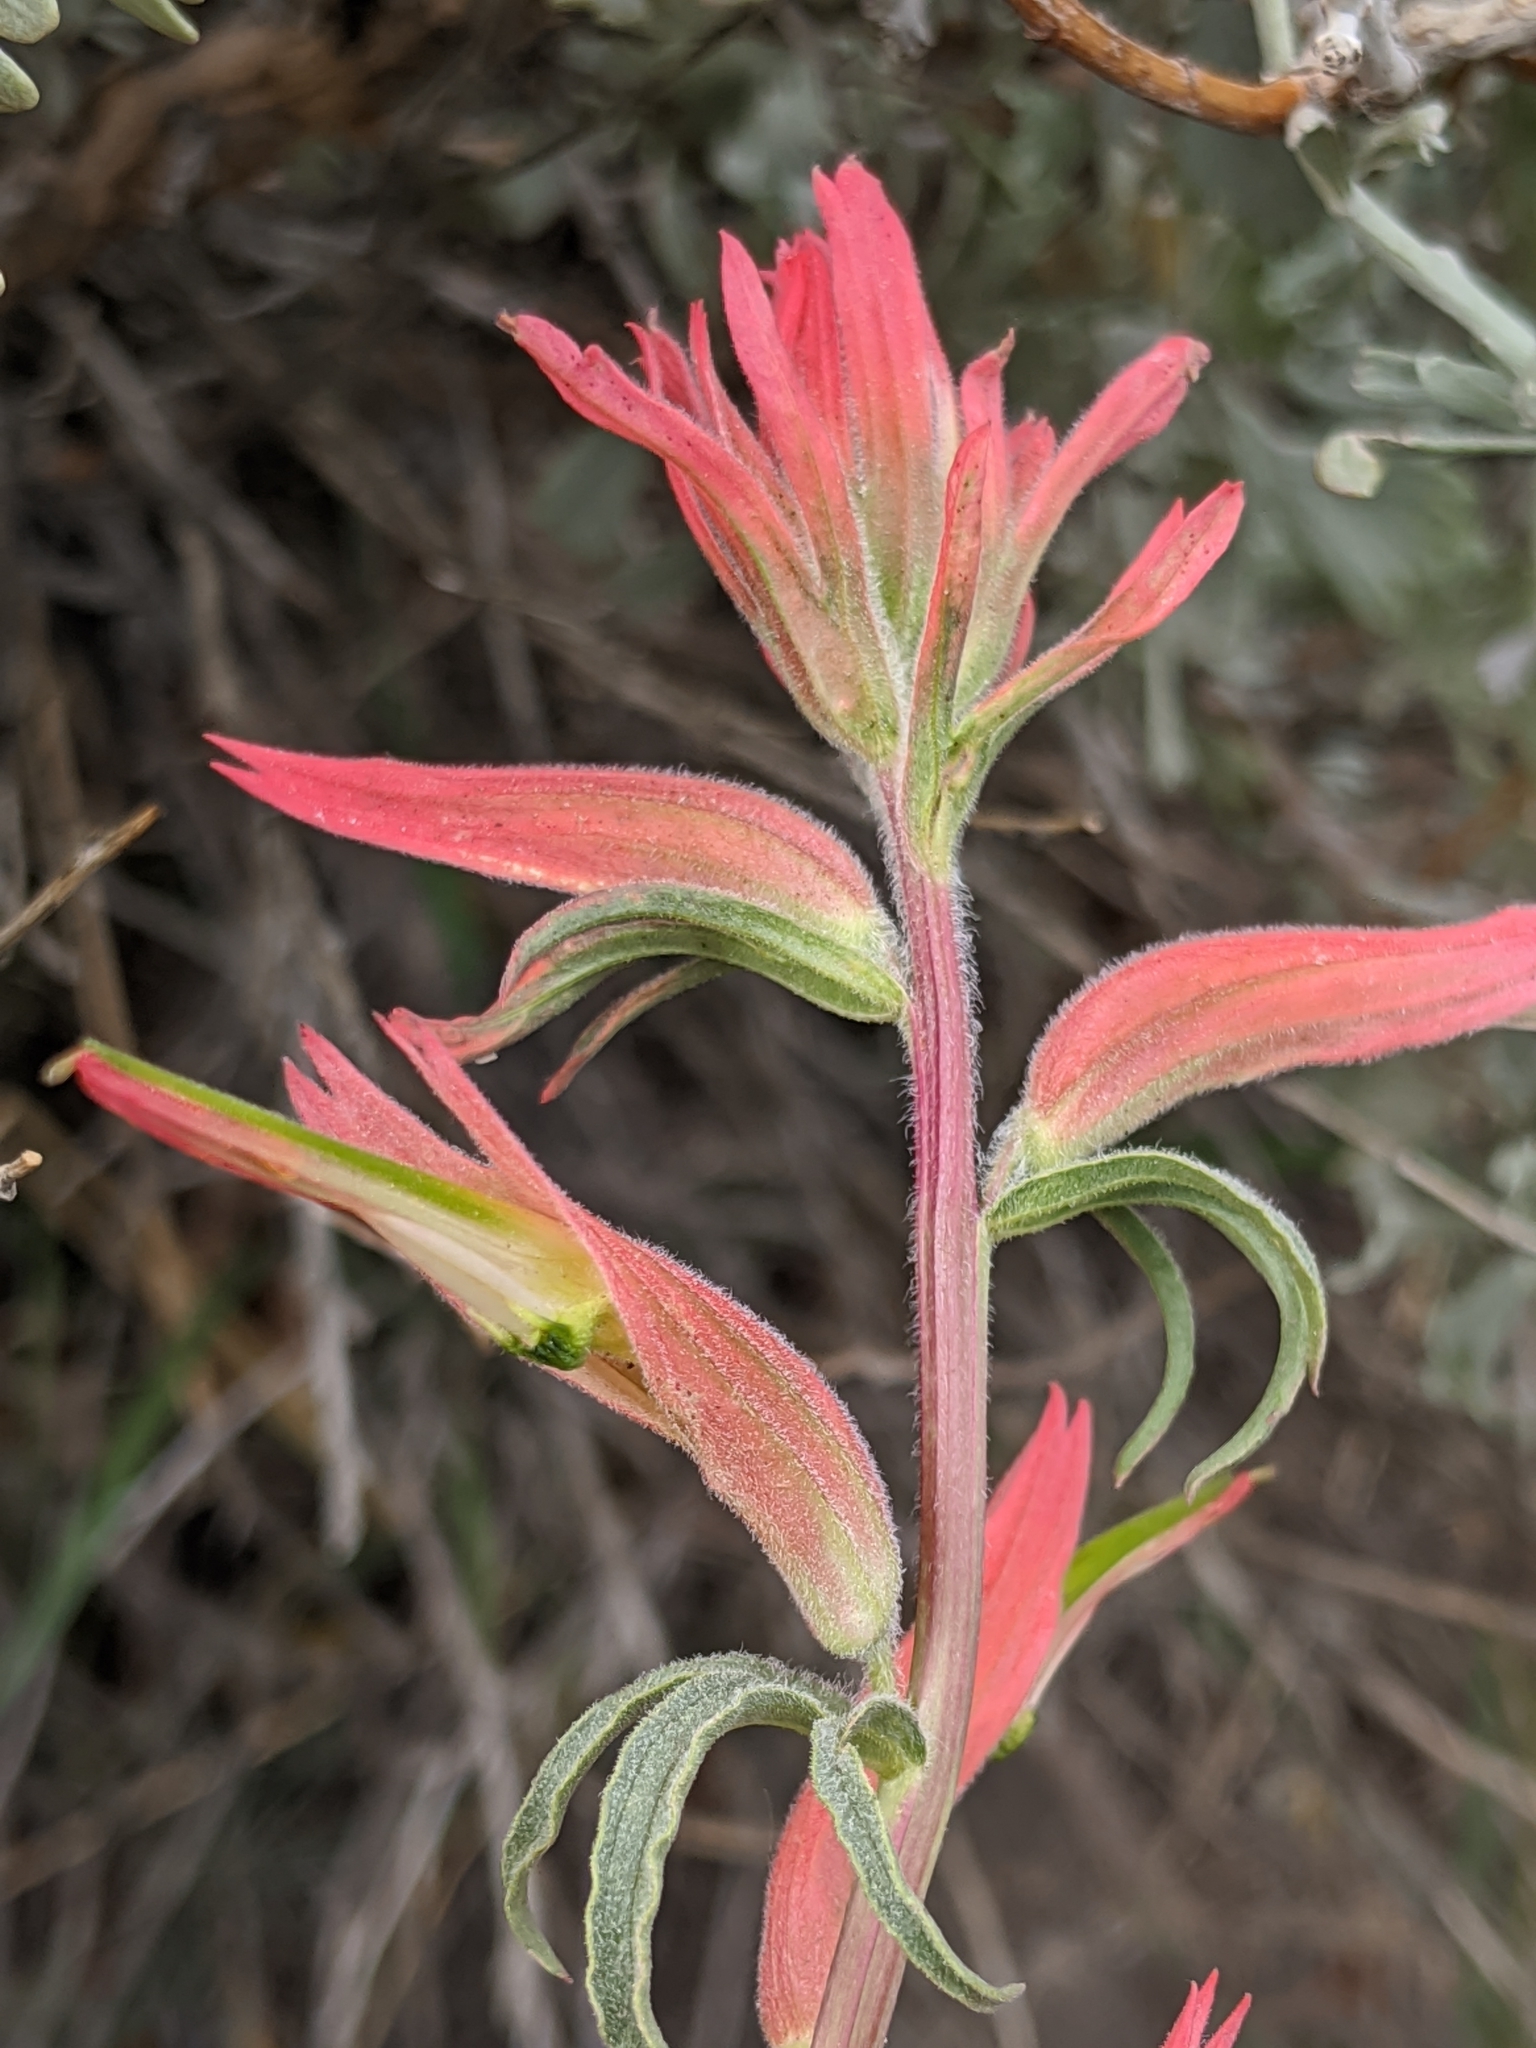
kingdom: Plantae
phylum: Tracheophyta
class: Magnoliopsida
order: Lamiales
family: Orobanchaceae
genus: Castilleja
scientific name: Castilleja linariifolia
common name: Wyoming paintbrush
